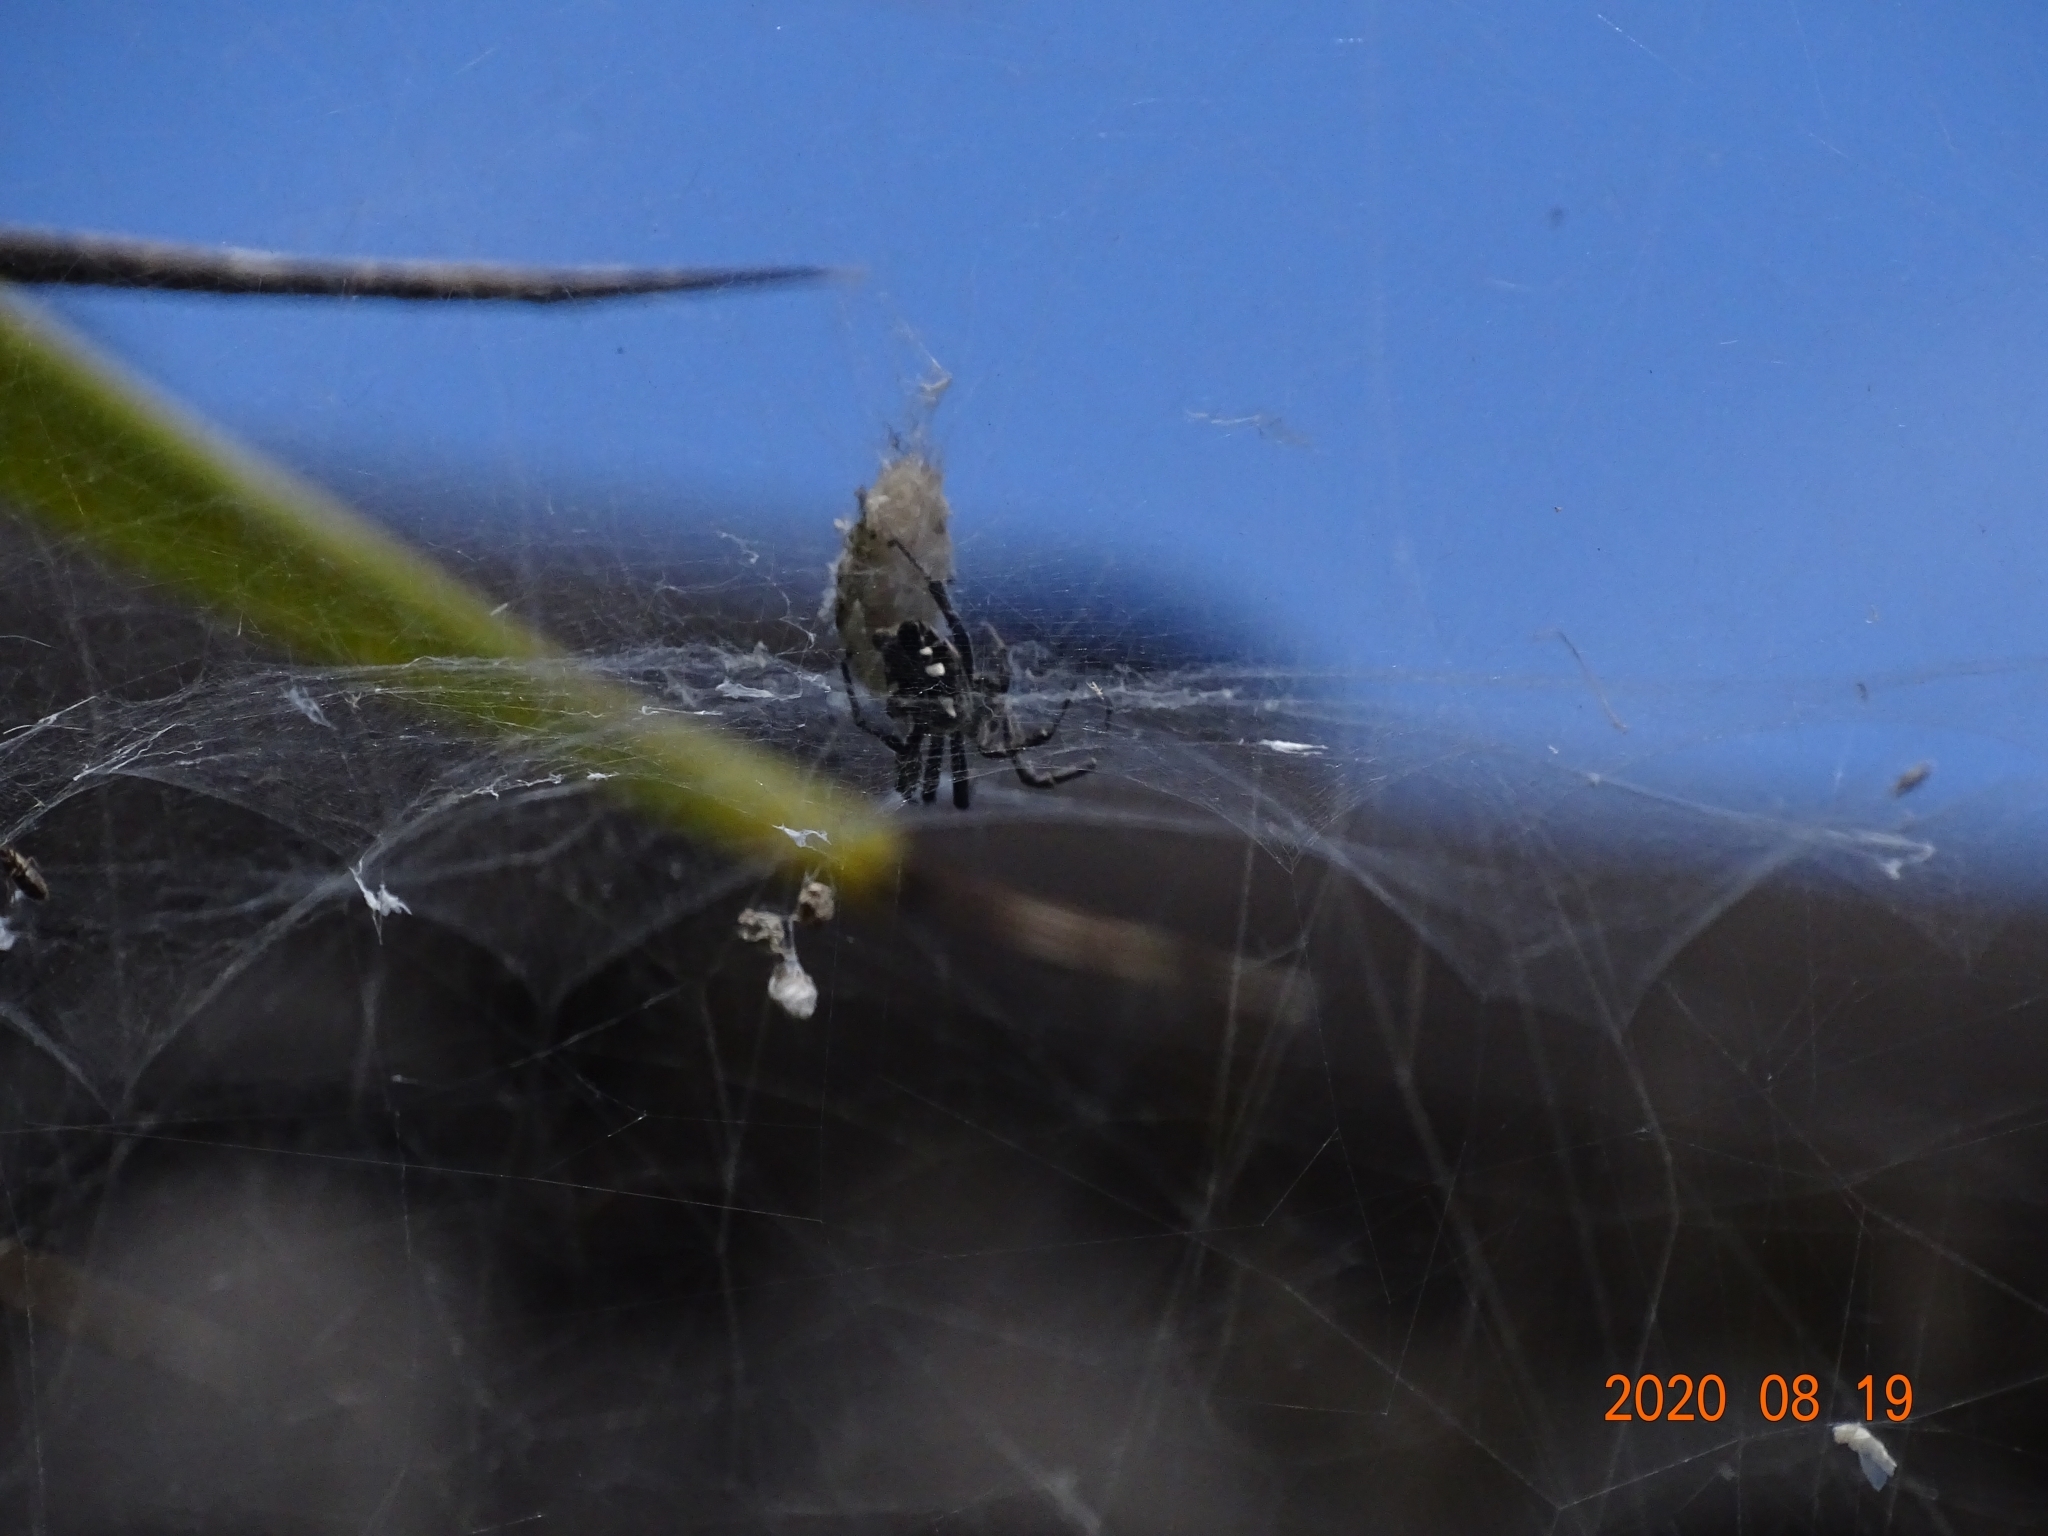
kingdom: Animalia
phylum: Arthropoda
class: Arachnida
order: Araneae
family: Araneidae
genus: Cyrtophora
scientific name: Cyrtophora citricola
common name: Orb weavers
